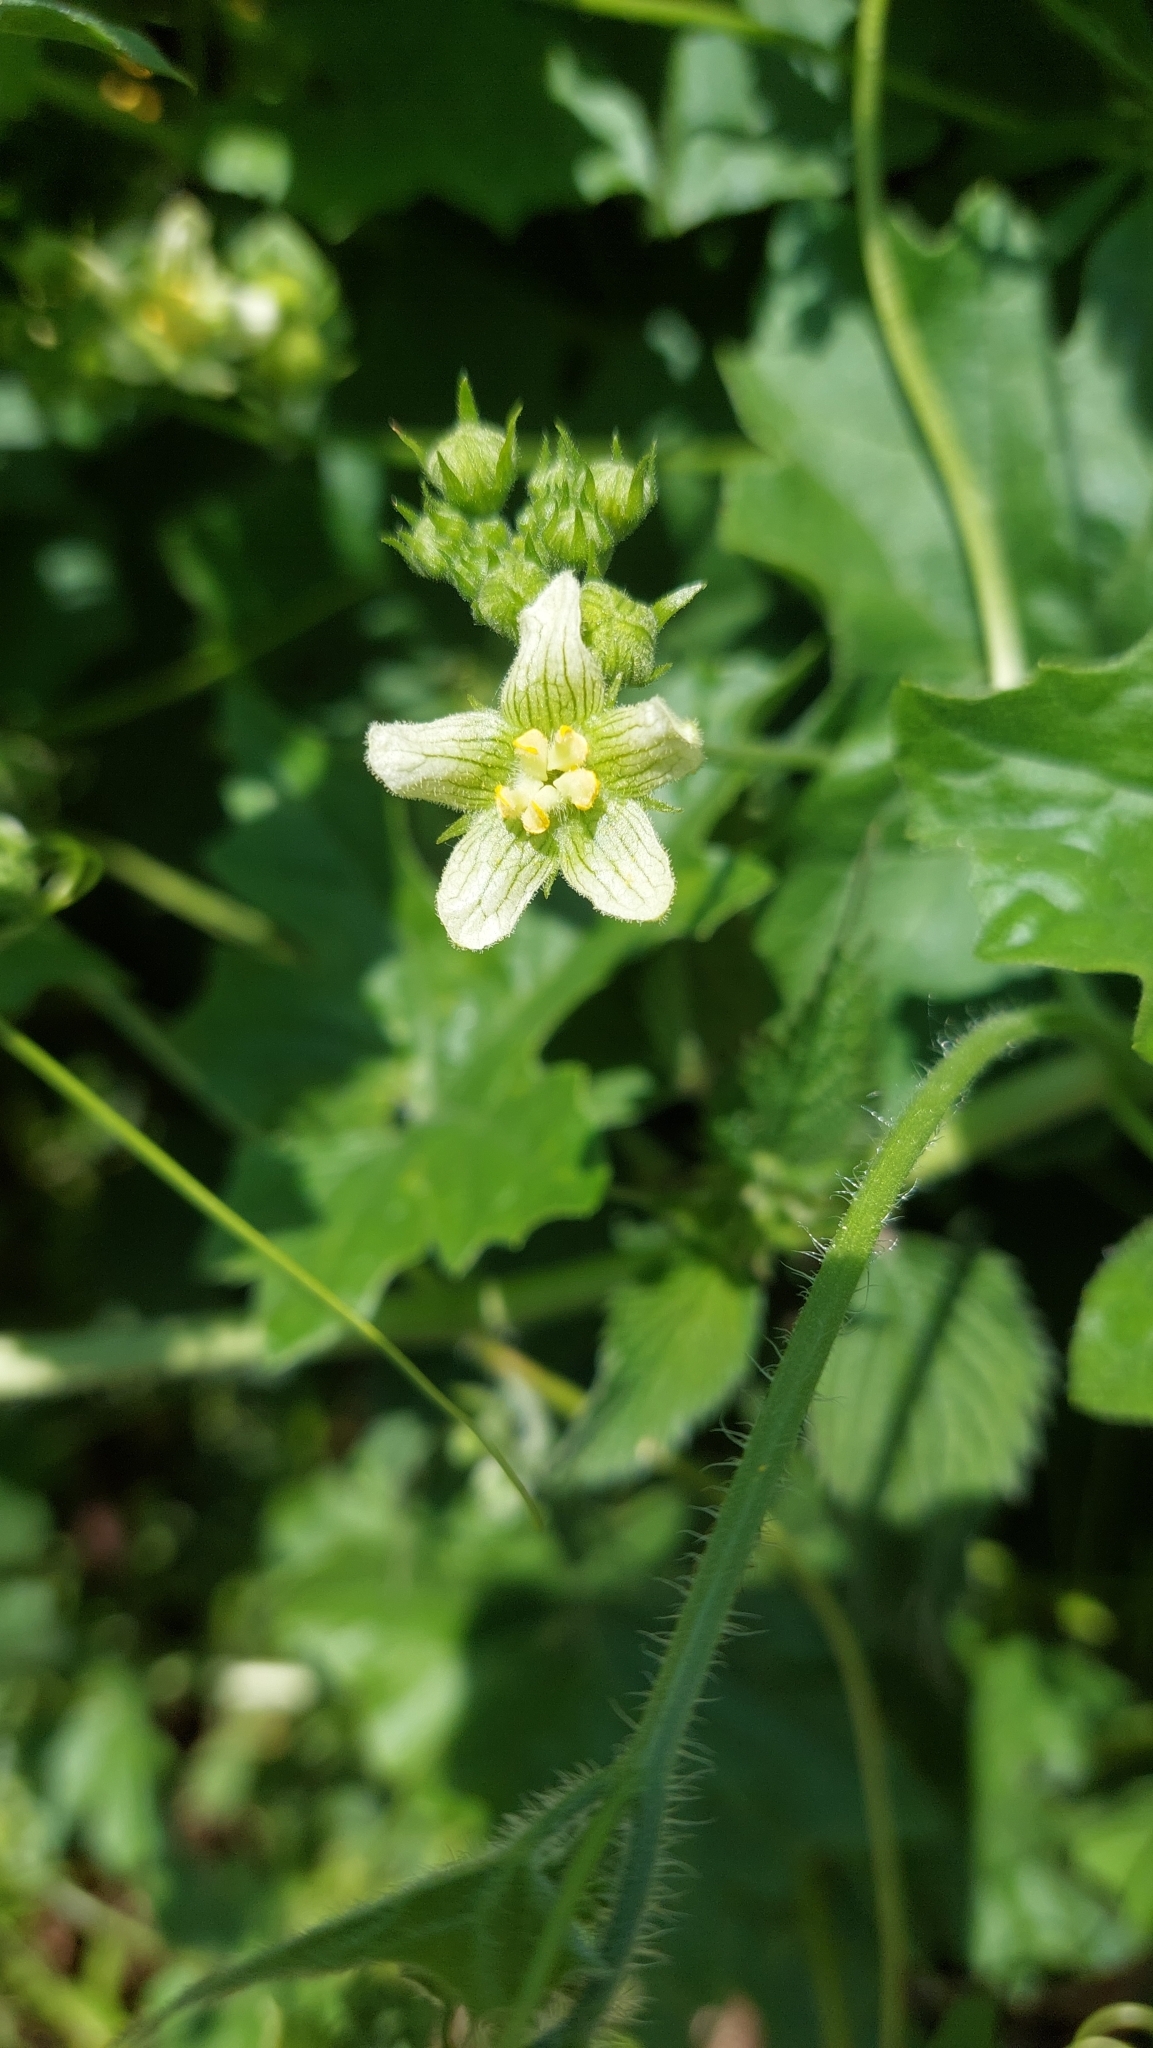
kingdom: Plantae
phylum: Tracheophyta
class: Magnoliopsida
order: Cucurbitales
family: Cucurbitaceae
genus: Bryonia
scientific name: Bryonia cretica
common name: Cretan bryony
